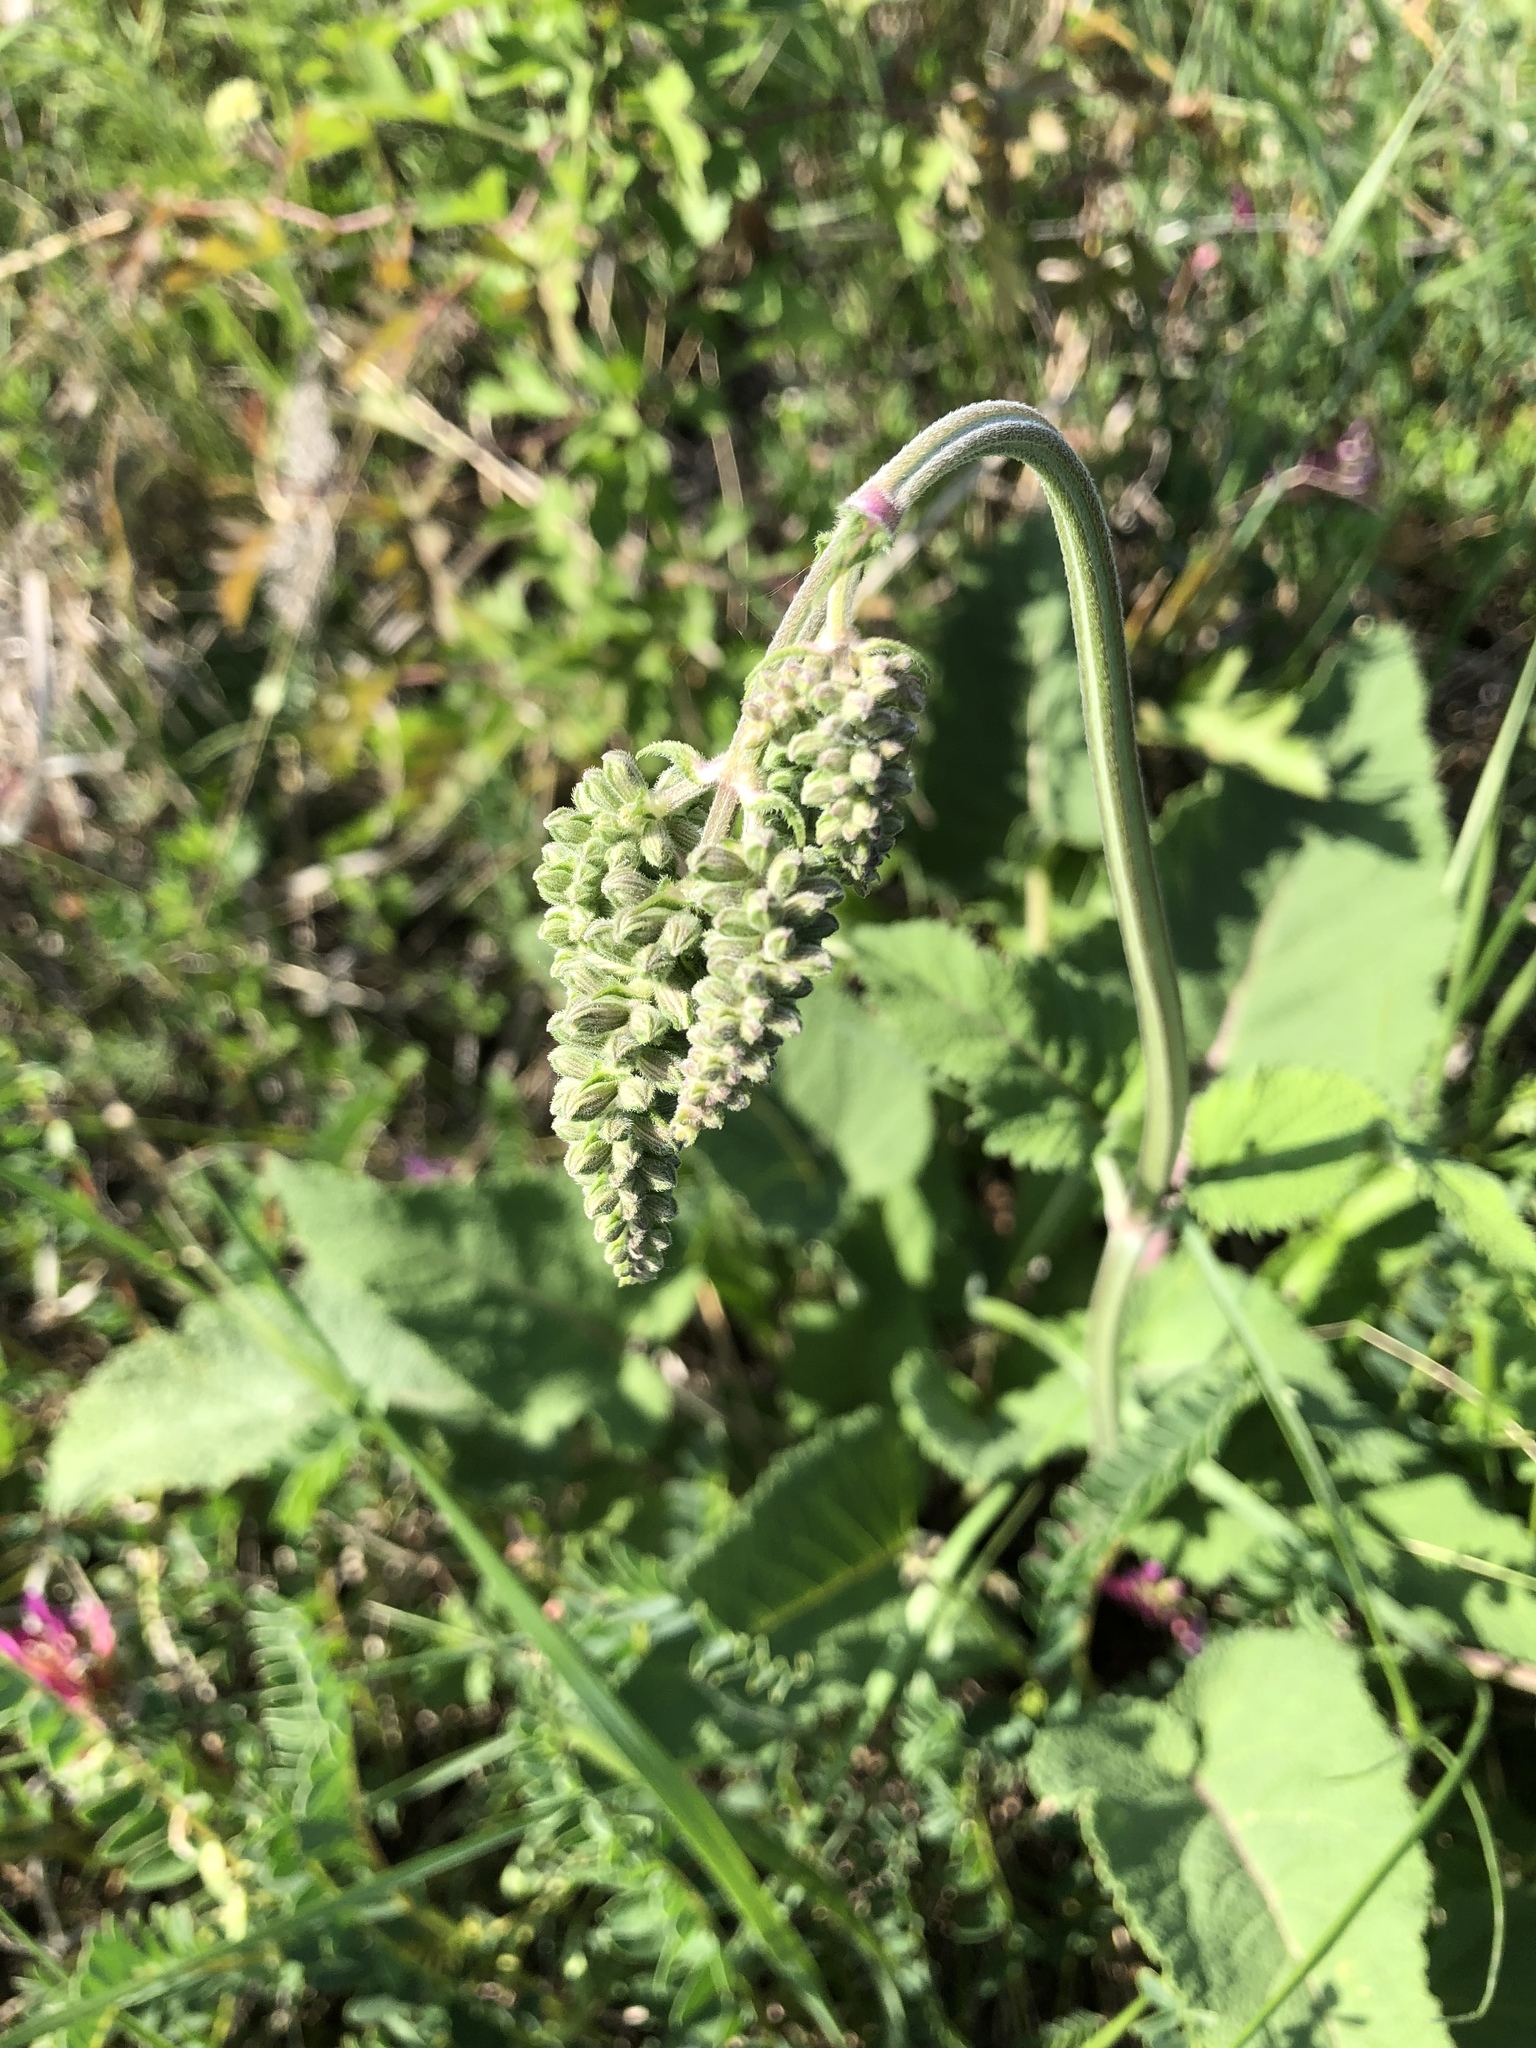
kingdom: Plantae
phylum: Tracheophyta
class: Magnoliopsida
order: Lamiales
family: Lamiaceae
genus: Salvia
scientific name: Salvia nutans
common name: Nodding sage
